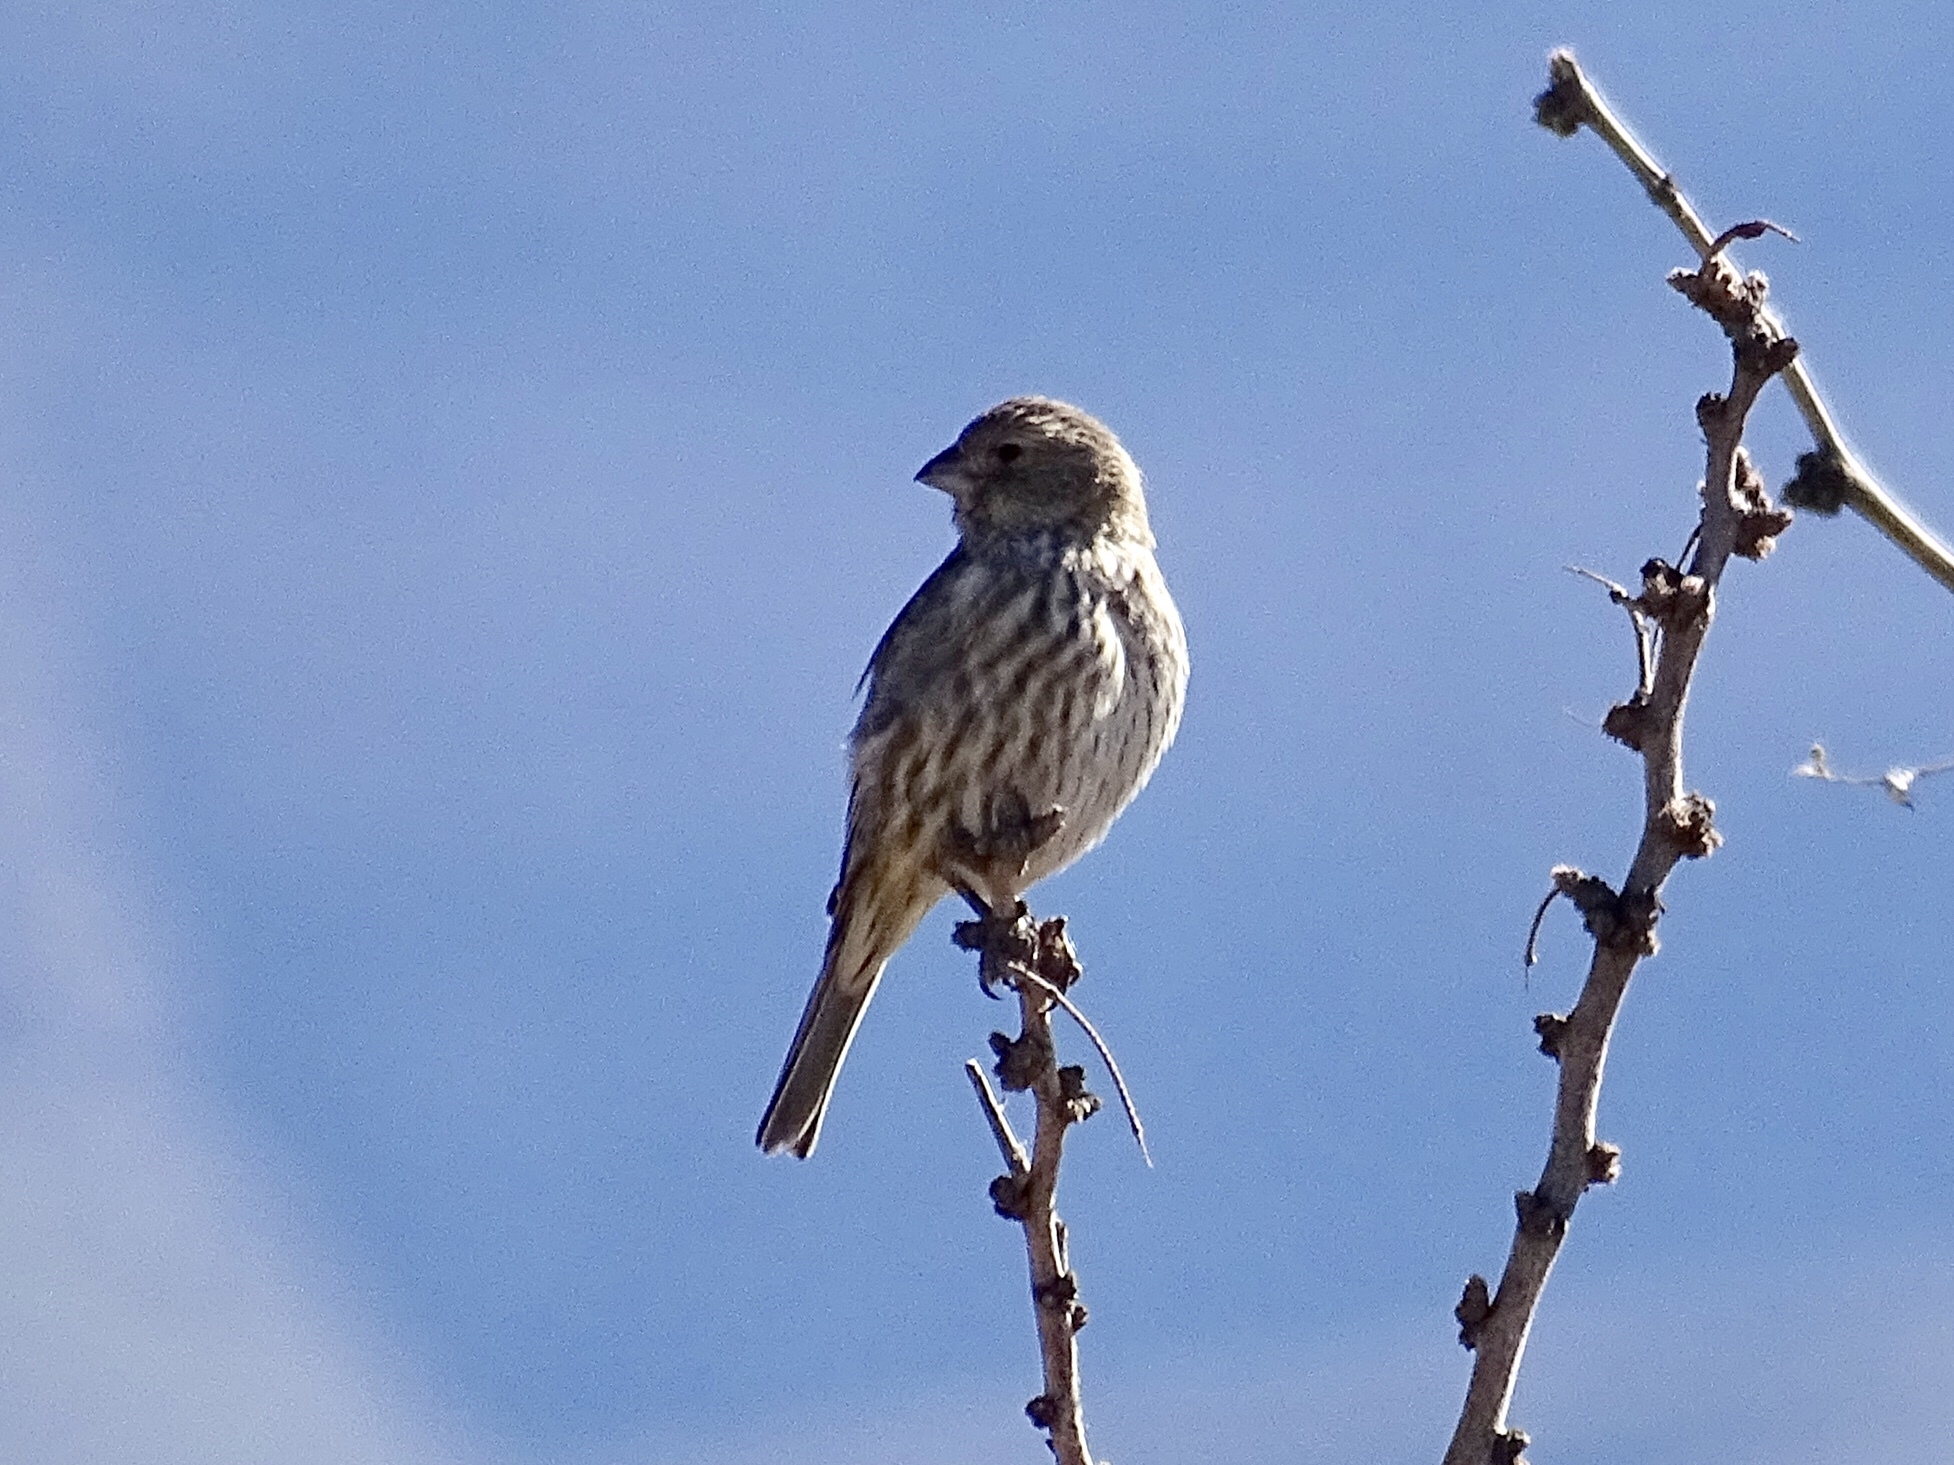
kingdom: Animalia
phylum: Chordata
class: Aves
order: Passeriformes
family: Fringillidae
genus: Haemorhous
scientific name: Haemorhous mexicanus
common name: House finch
